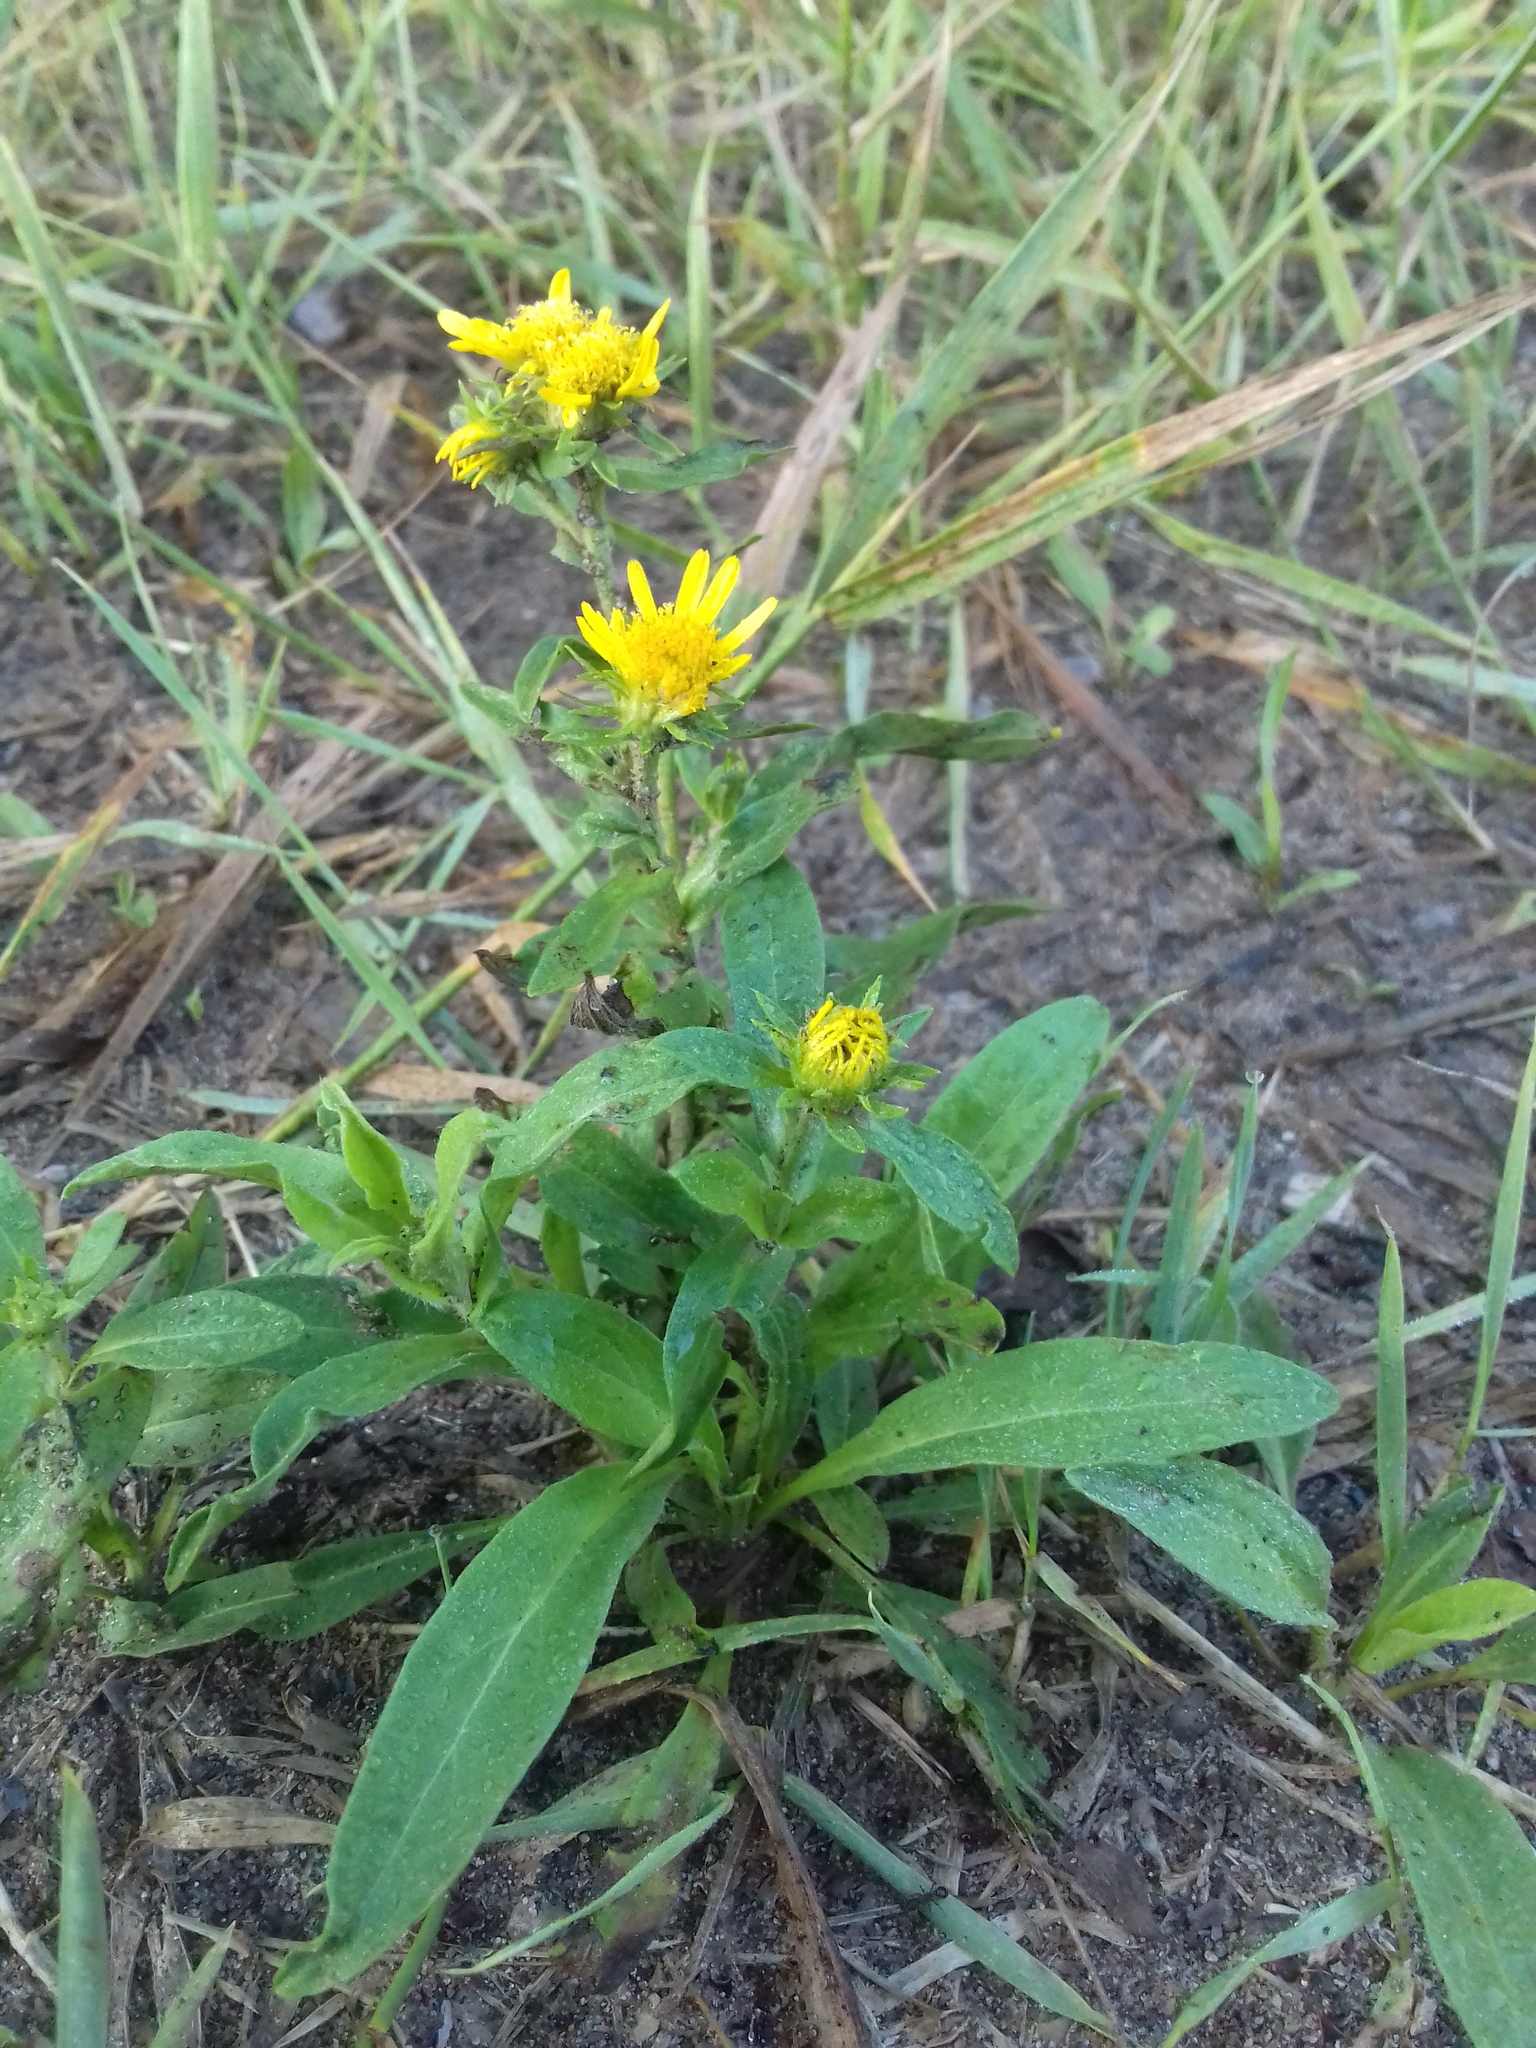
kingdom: Plantae
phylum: Tracheophyta
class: Magnoliopsida
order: Asterales
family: Asteraceae
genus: Pentanema
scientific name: Pentanema britannicum
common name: British elecampane
